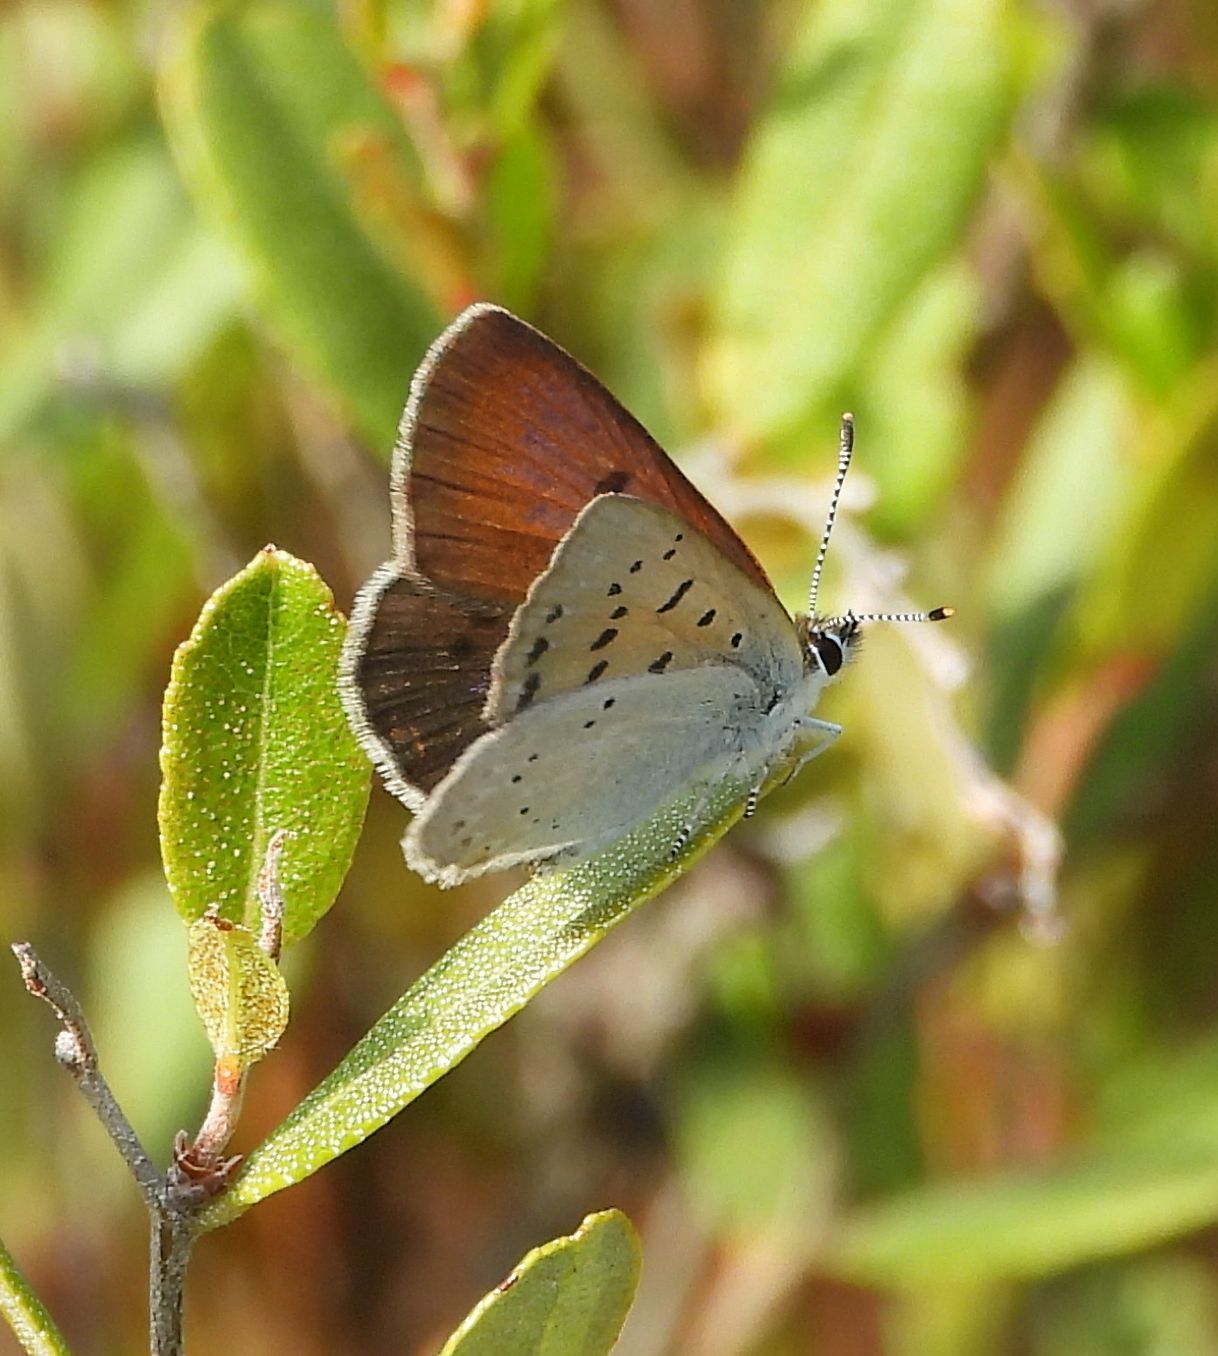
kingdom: Animalia
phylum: Arthropoda
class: Insecta
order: Lepidoptera
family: Lycaenidae
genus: Tharsalea
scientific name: Tharsalea epixanthe
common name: Bog copper
